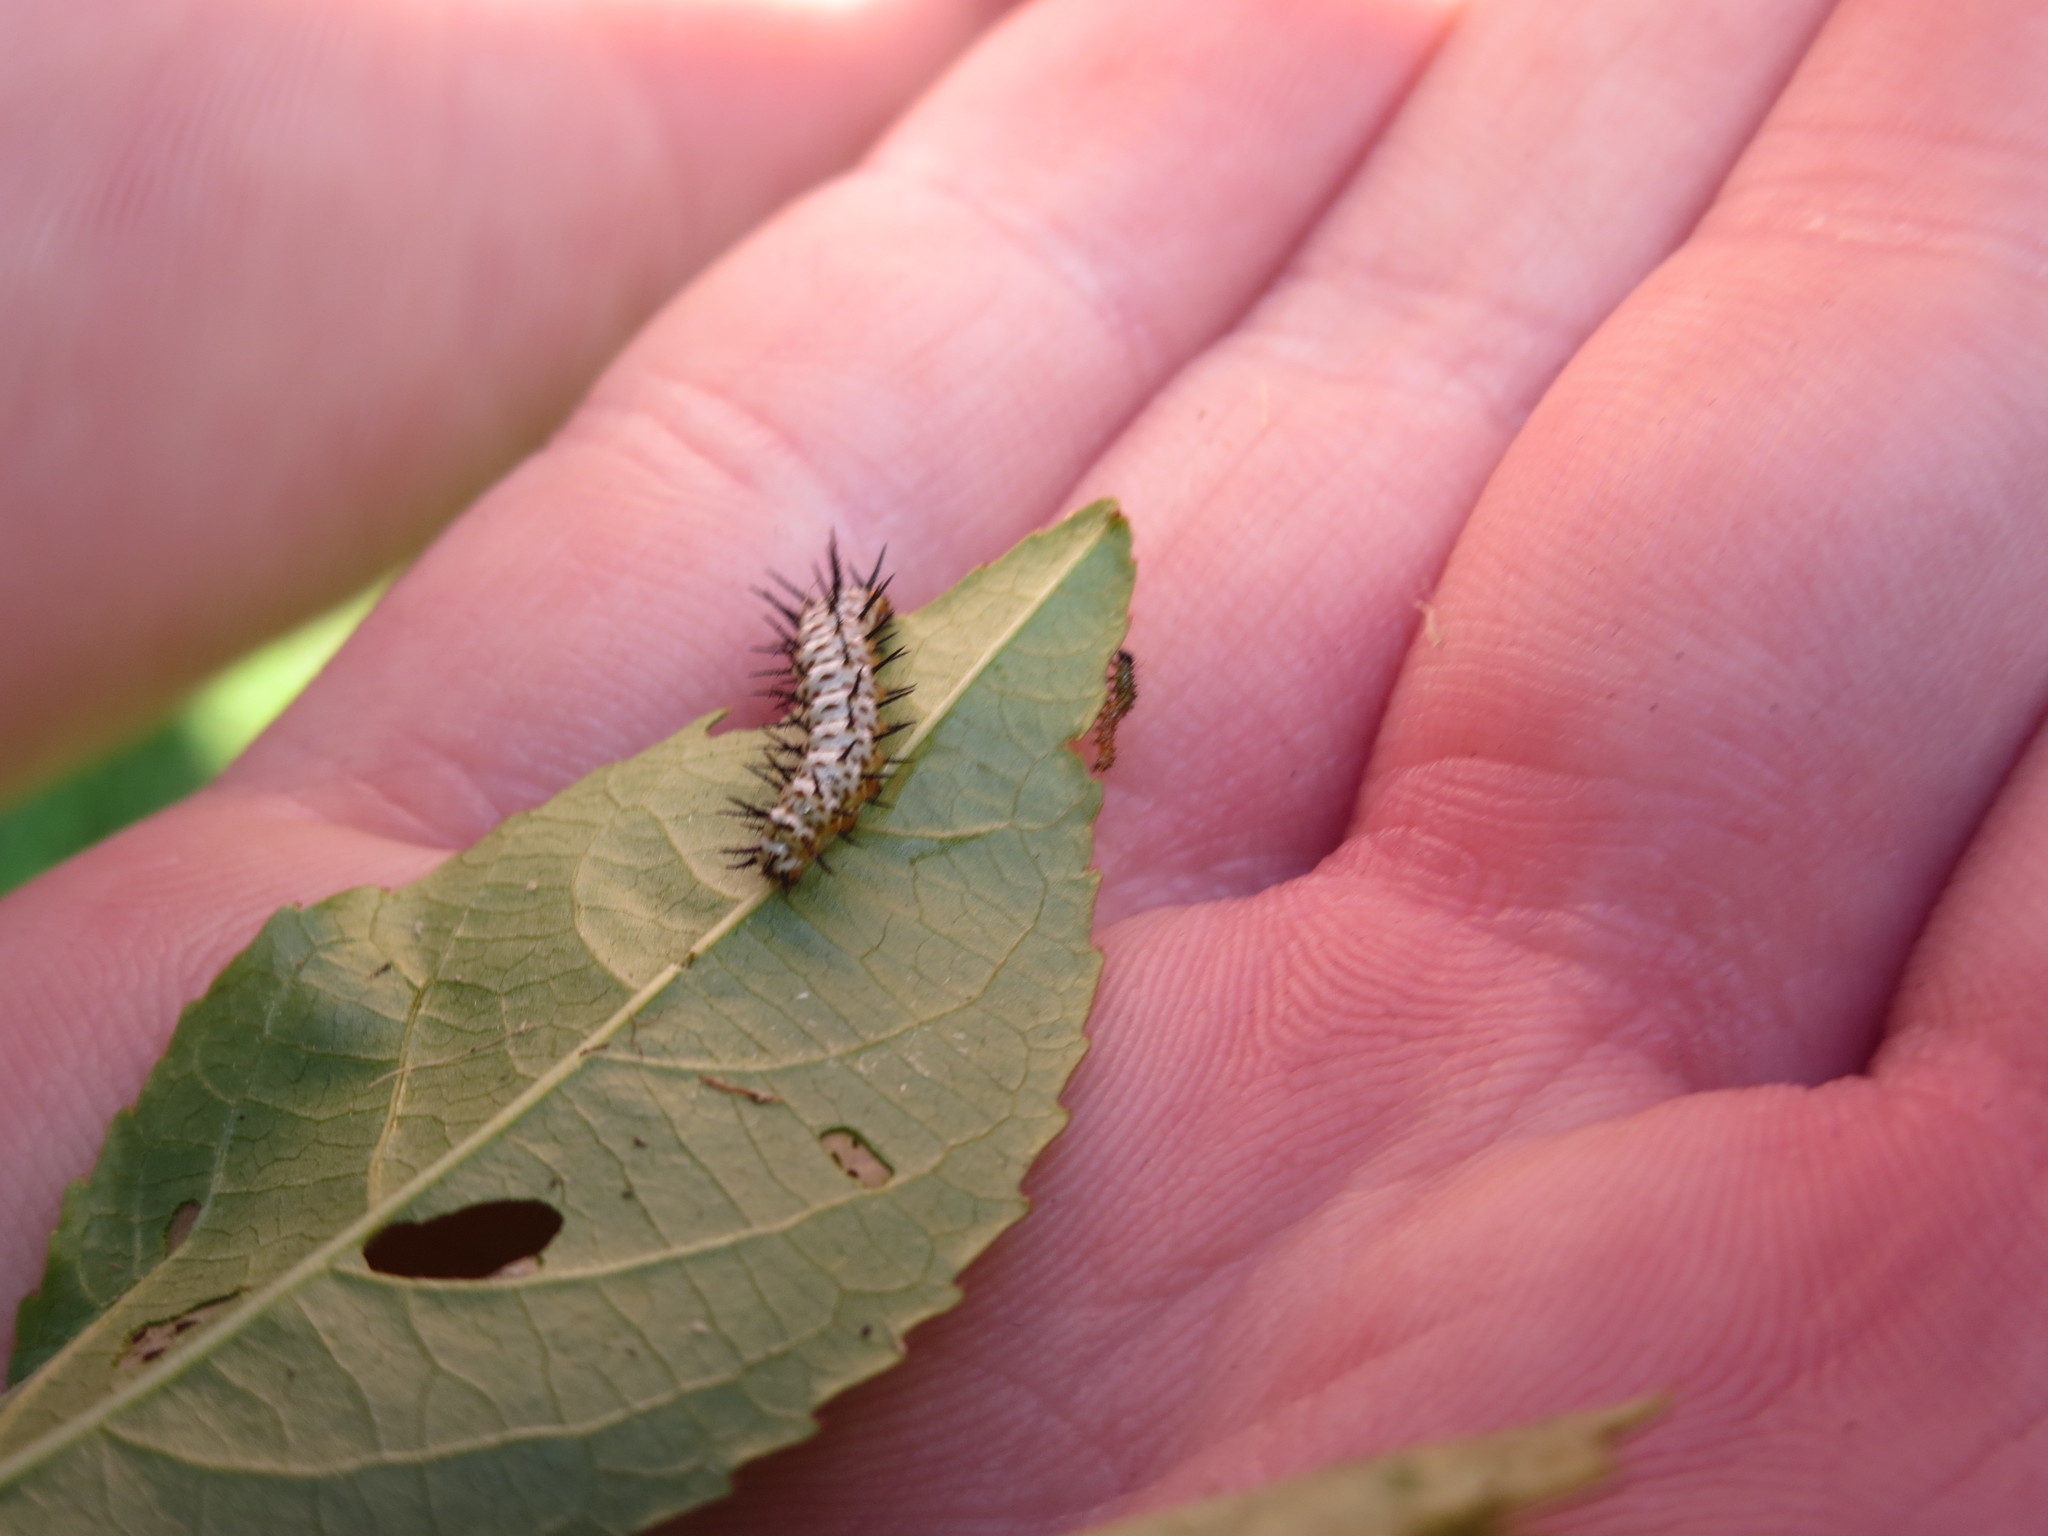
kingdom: Animalia
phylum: Arthropoda
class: Insecta
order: Lepidoptera
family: Nymphalidae
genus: Heliconius
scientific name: Heliconius charithonia
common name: Zebra long wing
